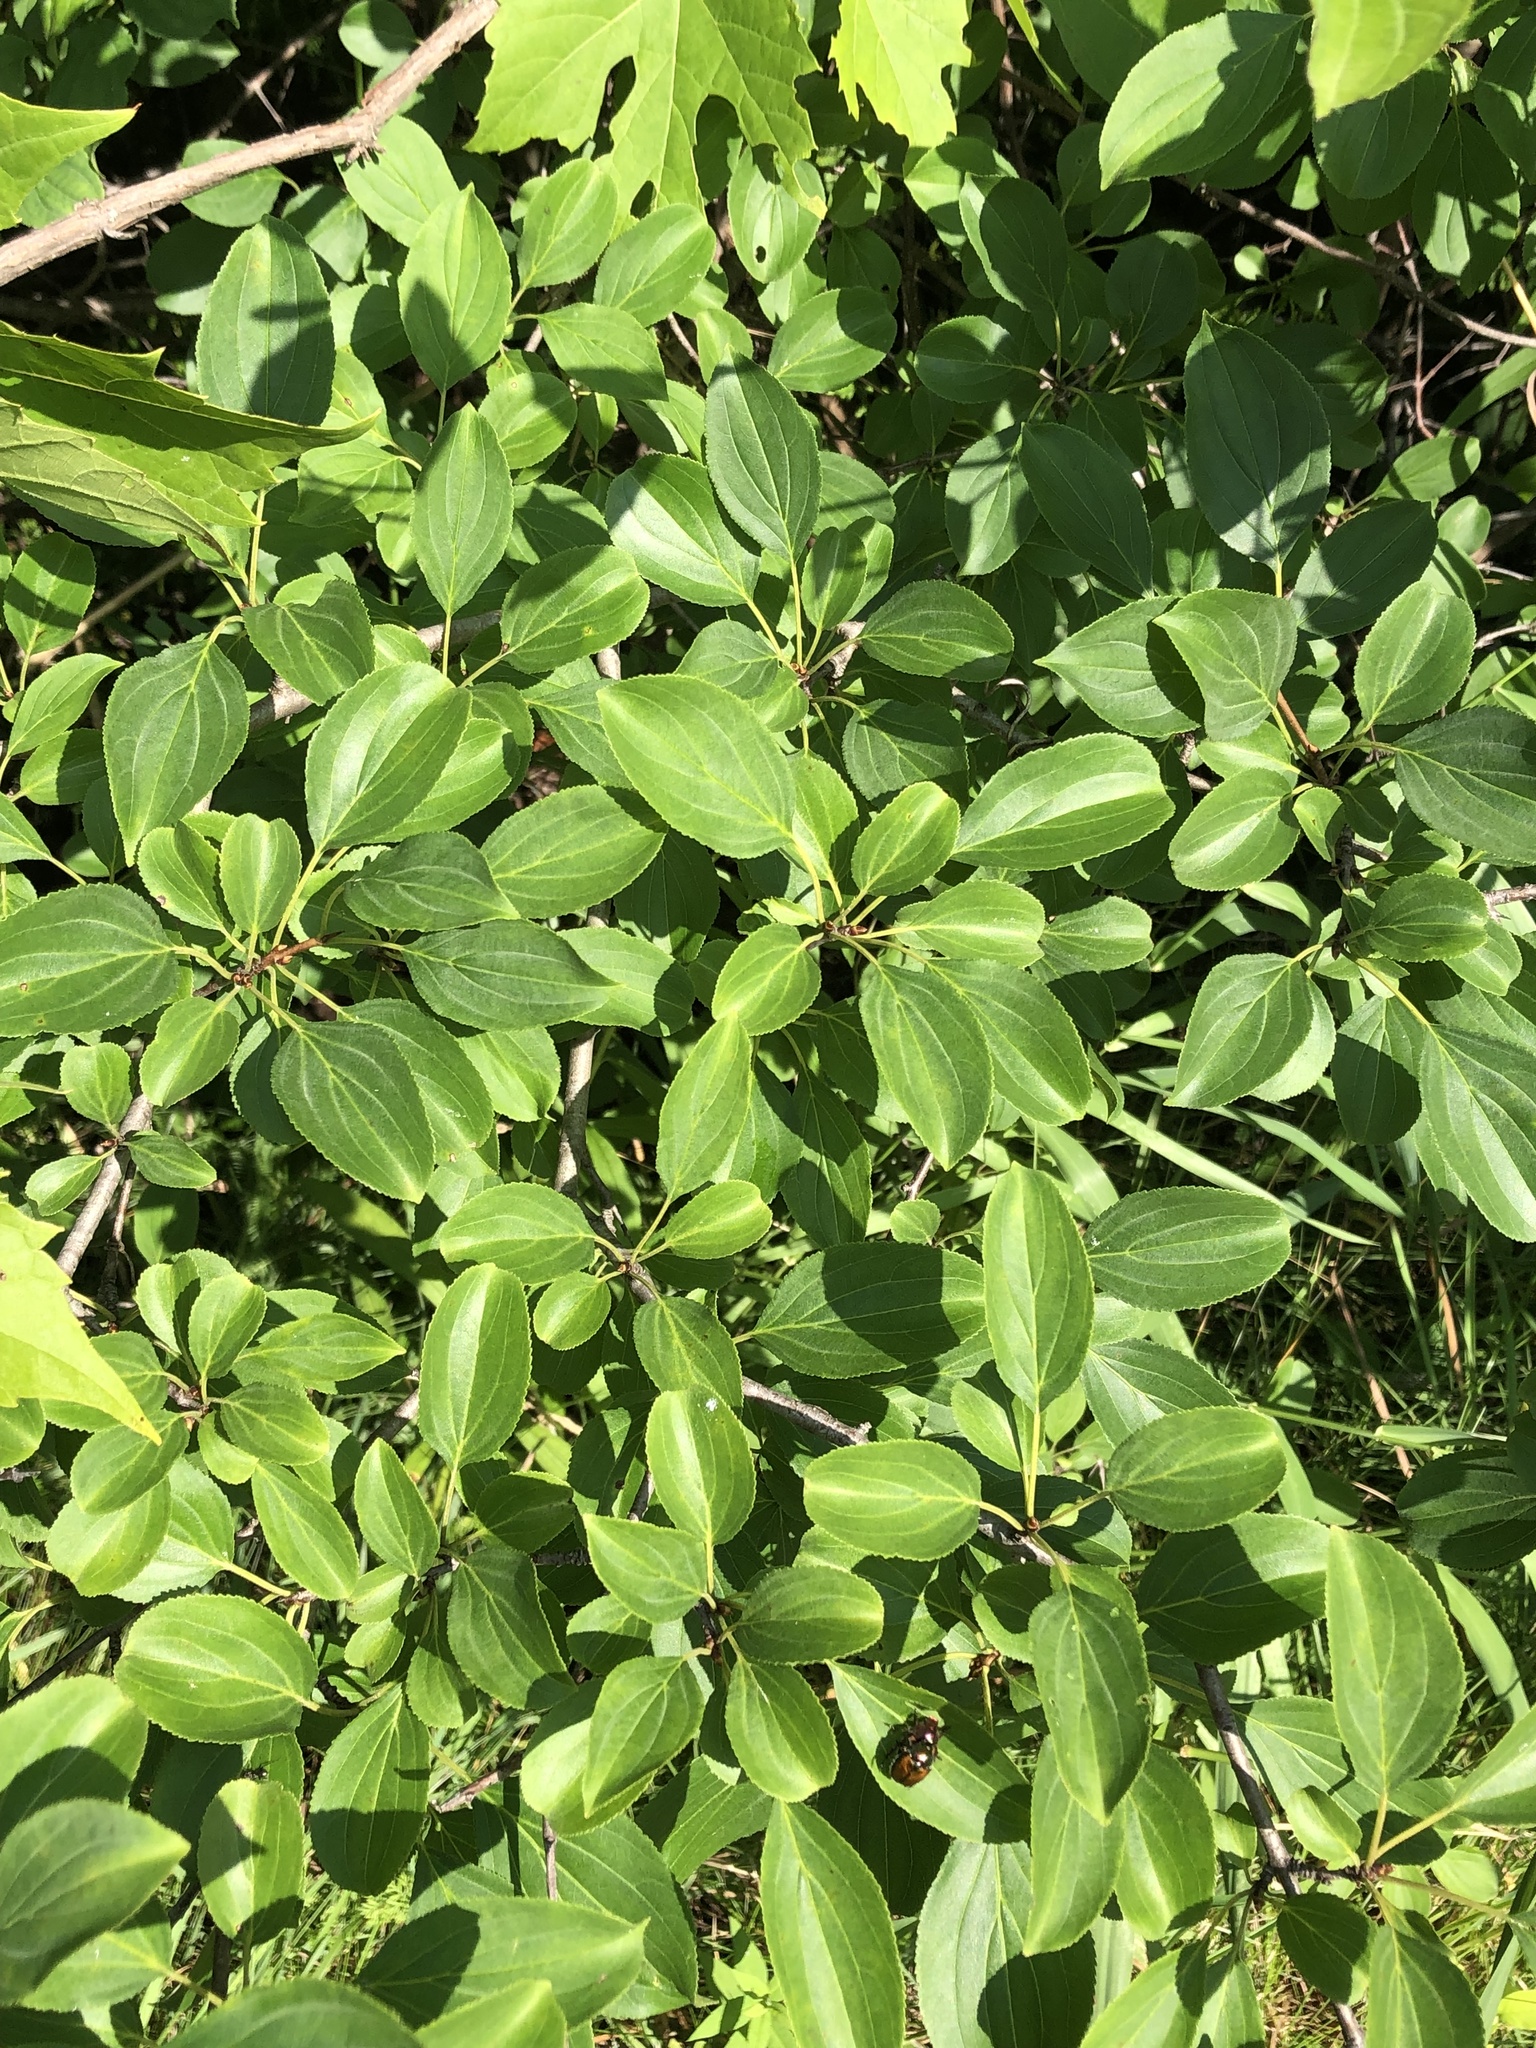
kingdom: Plantae
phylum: Tracheophyta
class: Magnoliopsida
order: Rosales
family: Rhamnaceae
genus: Rhamnus
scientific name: Rhamnus cathartica
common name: Common buckthorn
